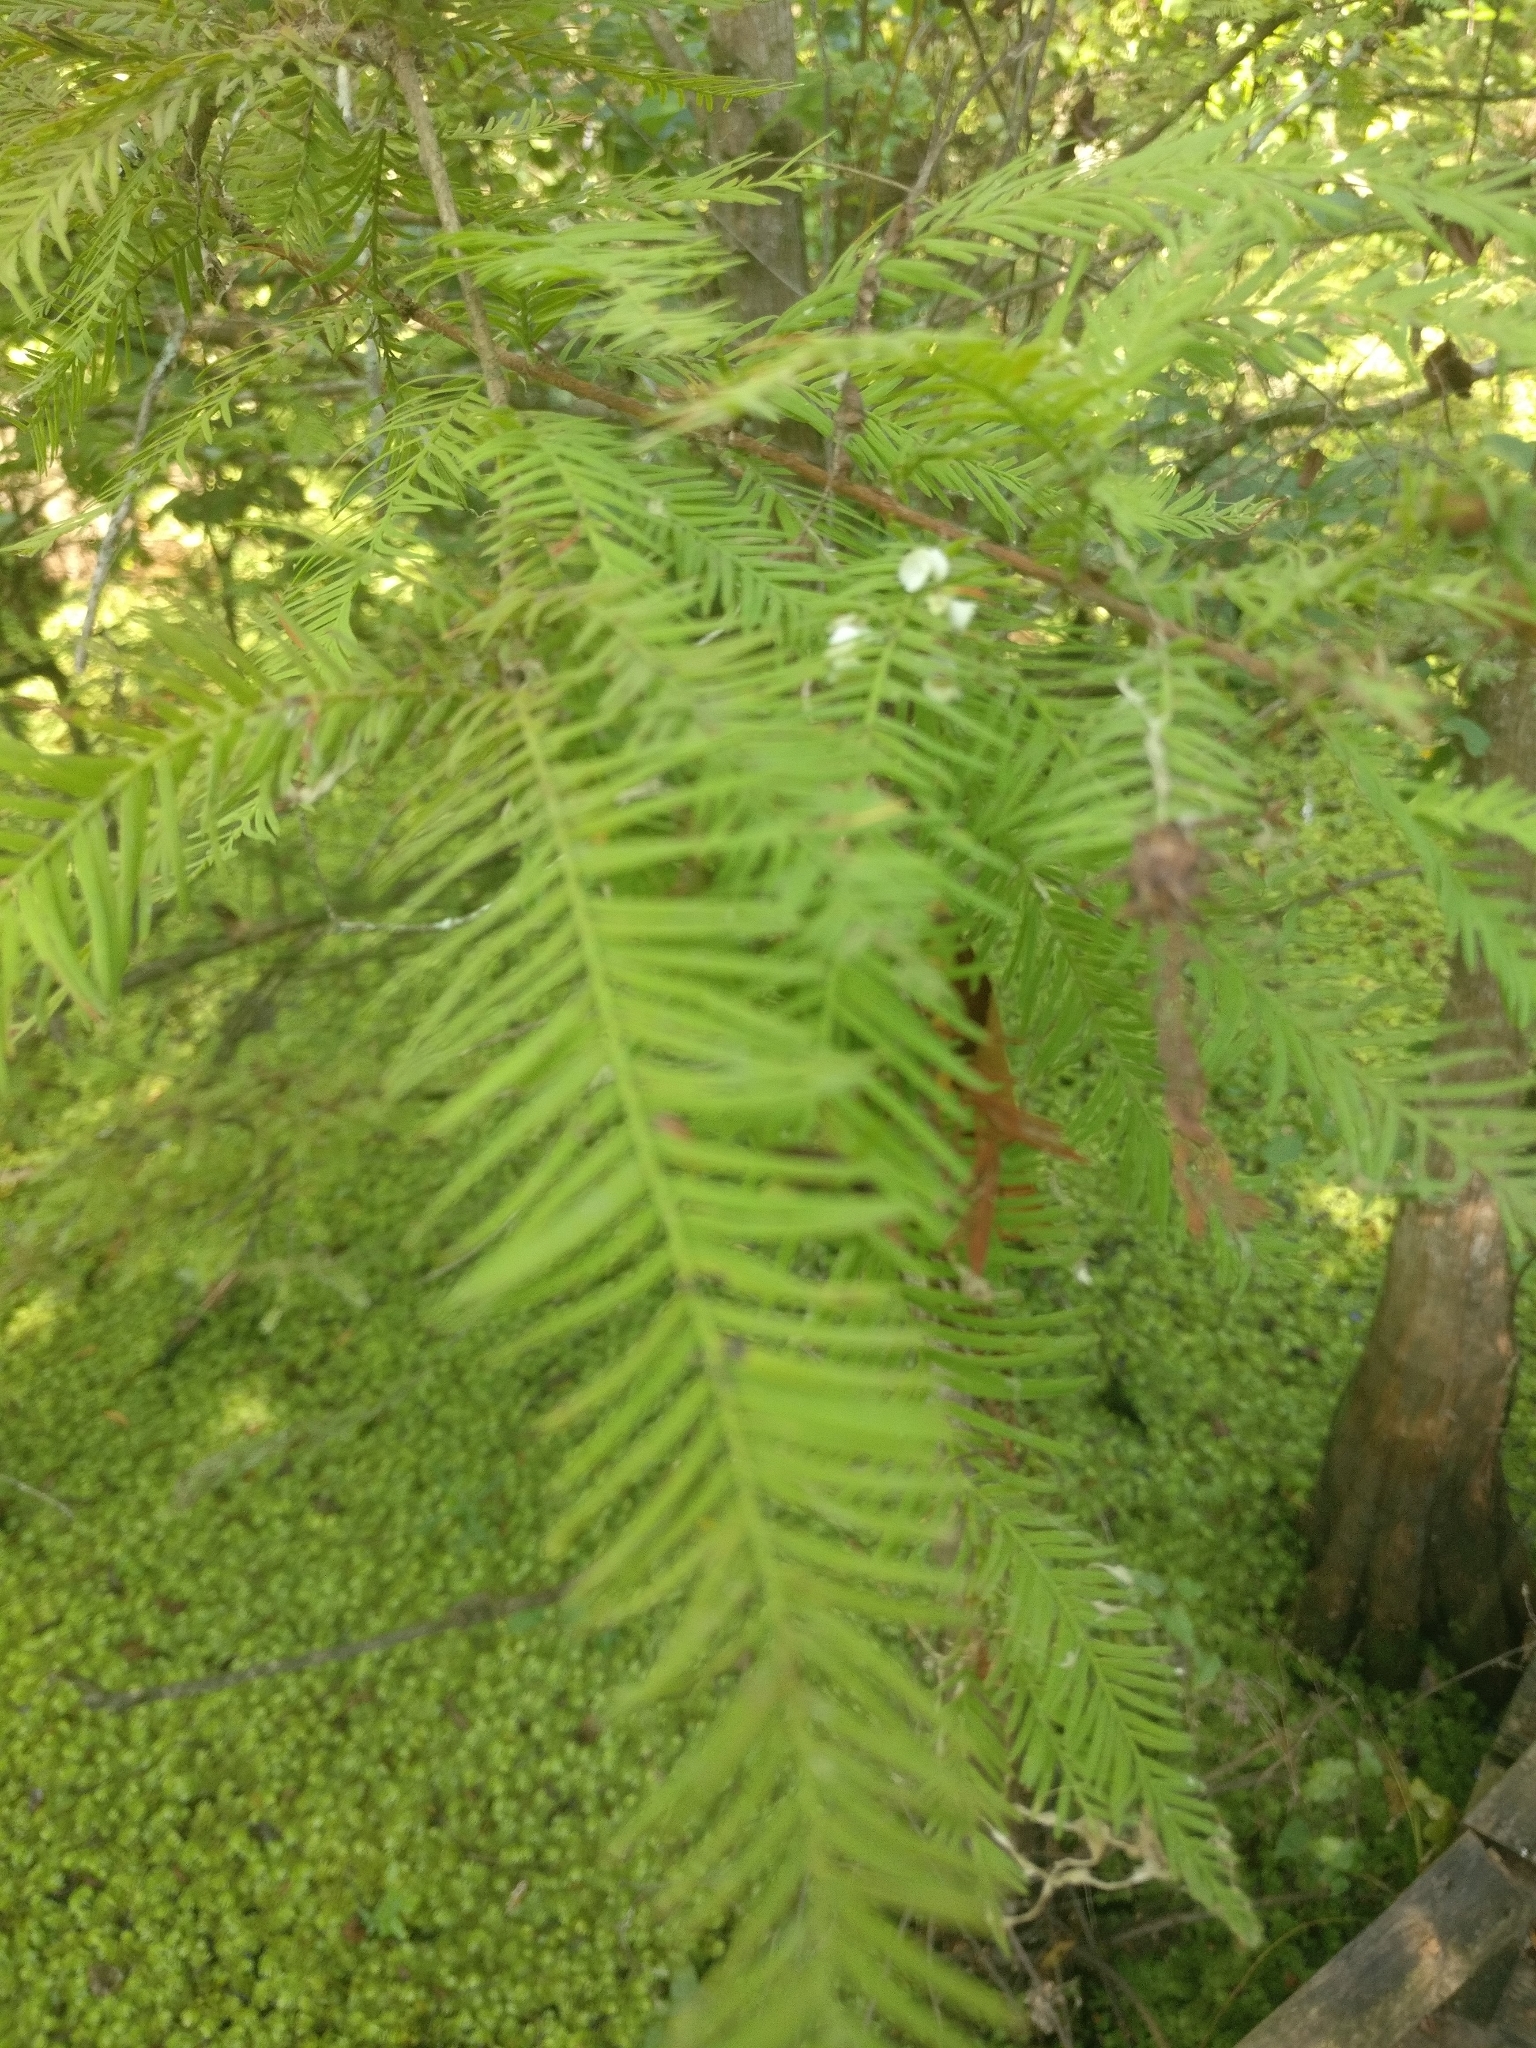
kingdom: Plantae
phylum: Tracheophyta
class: Pinopsida
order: Pinales
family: Cupressaceae
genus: Taxodium
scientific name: Taxodium distichum
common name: Bald cypress
